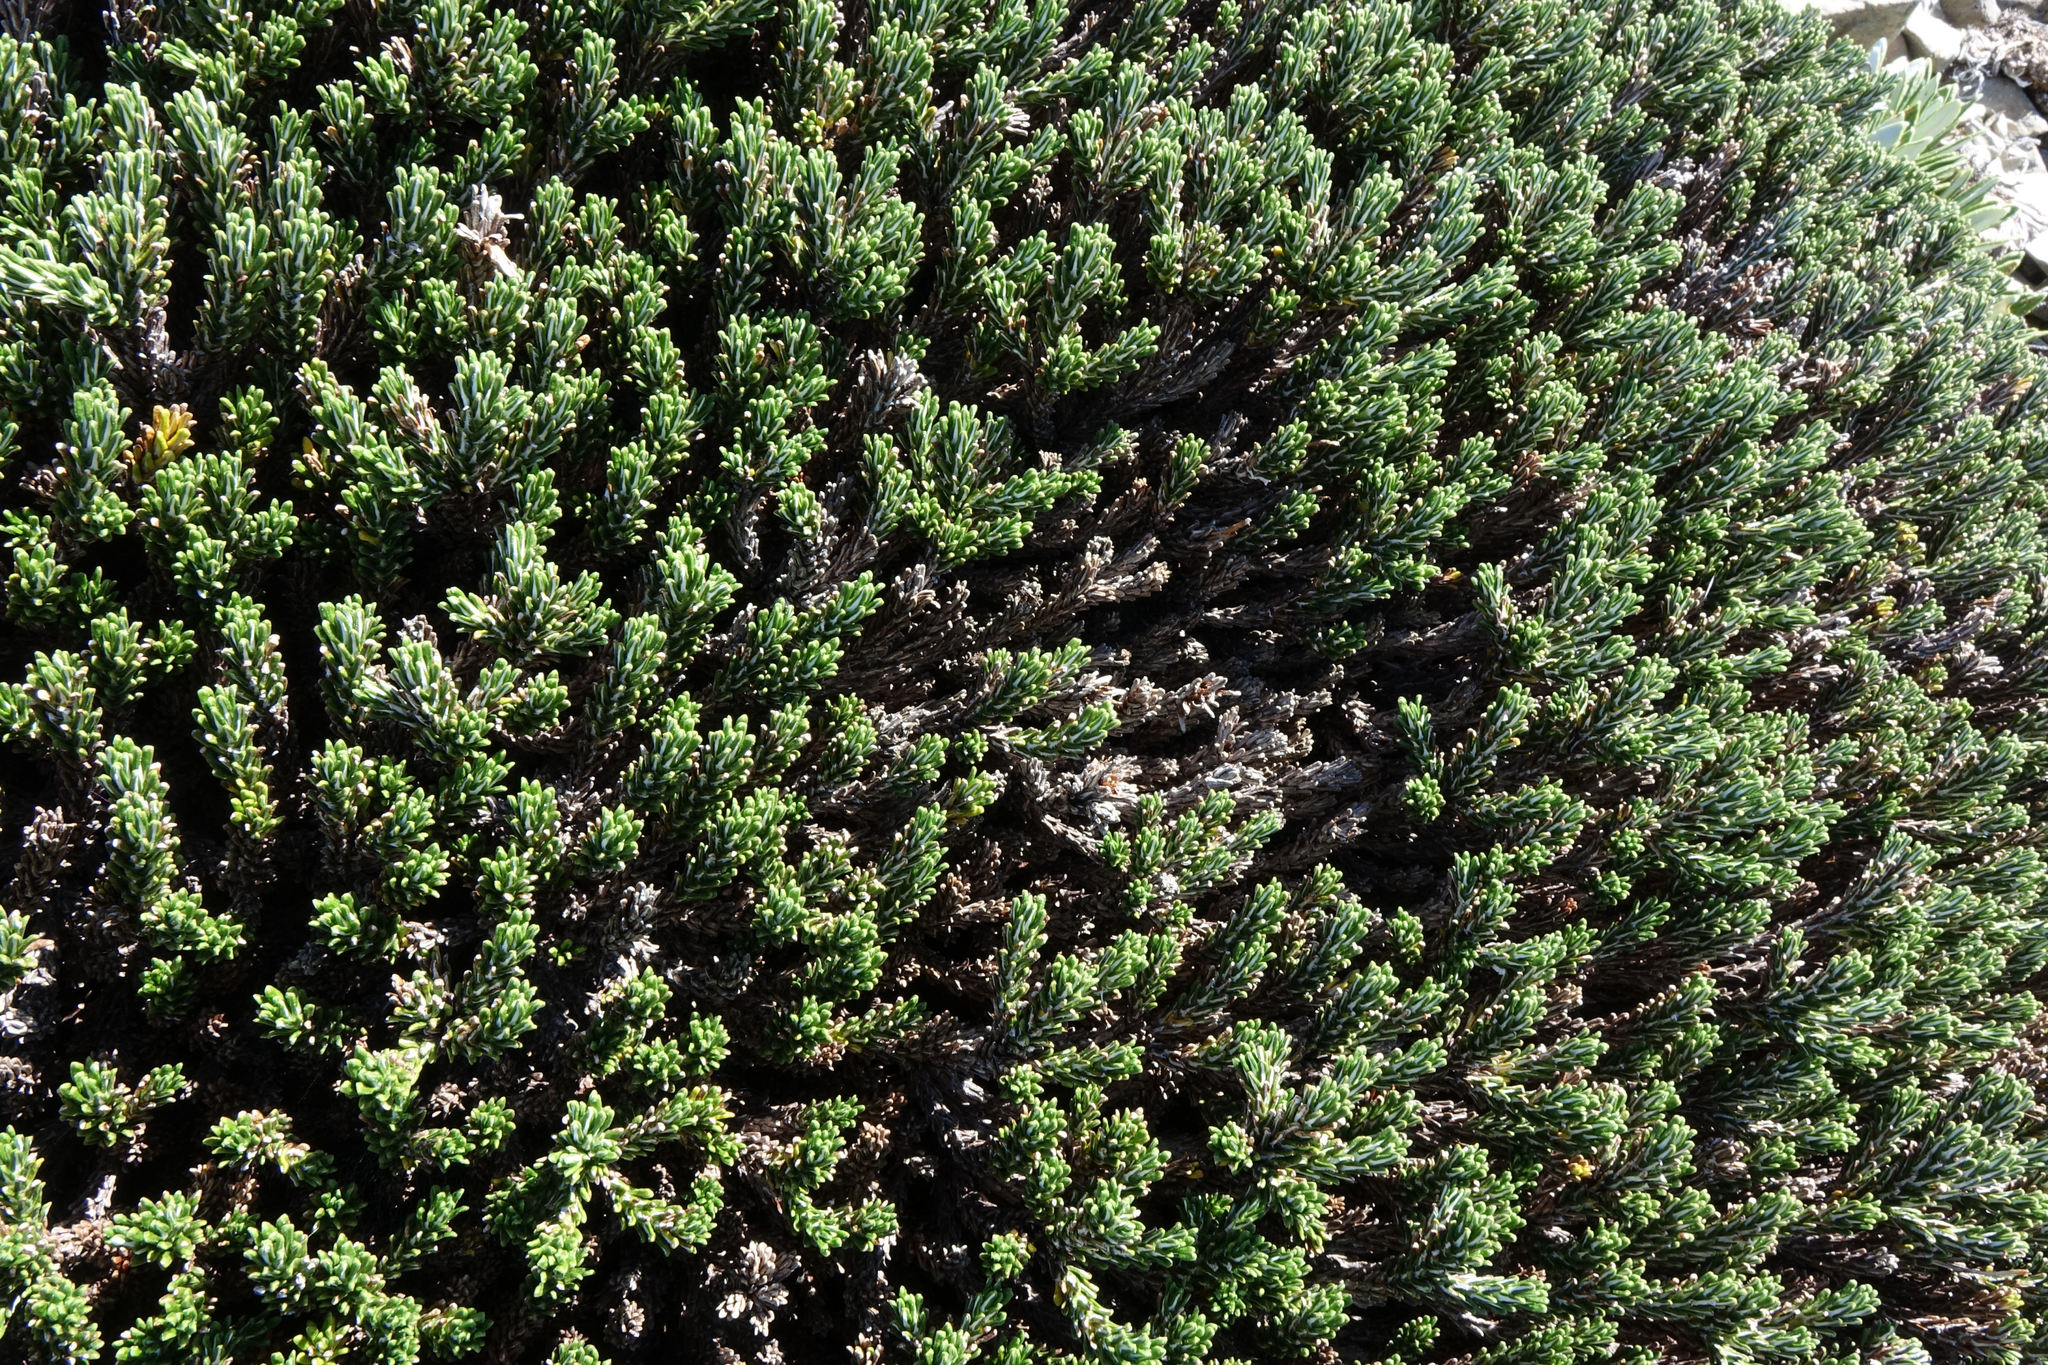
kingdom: Plantae
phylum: Tracheophyta
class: Magnoliopsida
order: Asterales
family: Asteraceae
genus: Celmisia
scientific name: Celmisia ramulosa
